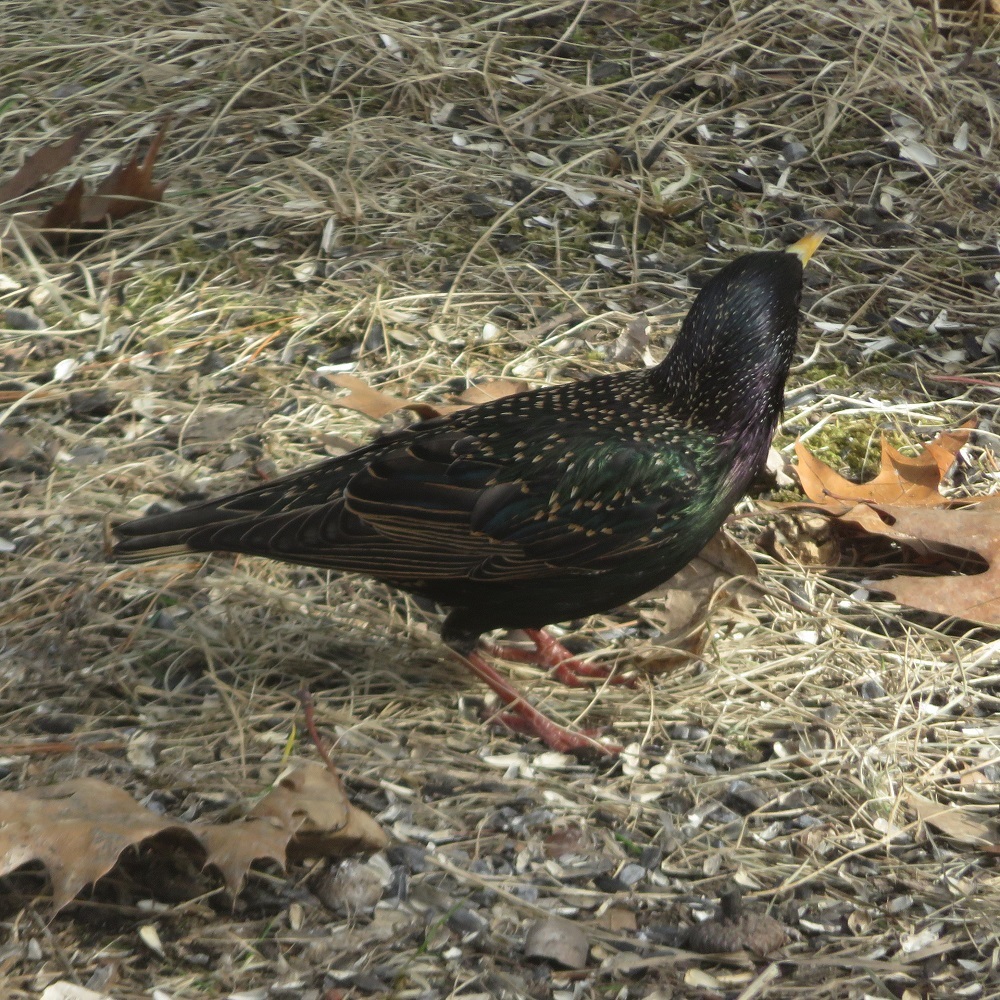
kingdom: Animalia
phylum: Chordata
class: Aves
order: Passeriformes
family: Sturnidae
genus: Sturnus
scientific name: Sturnus vulgaris
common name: Common starling
